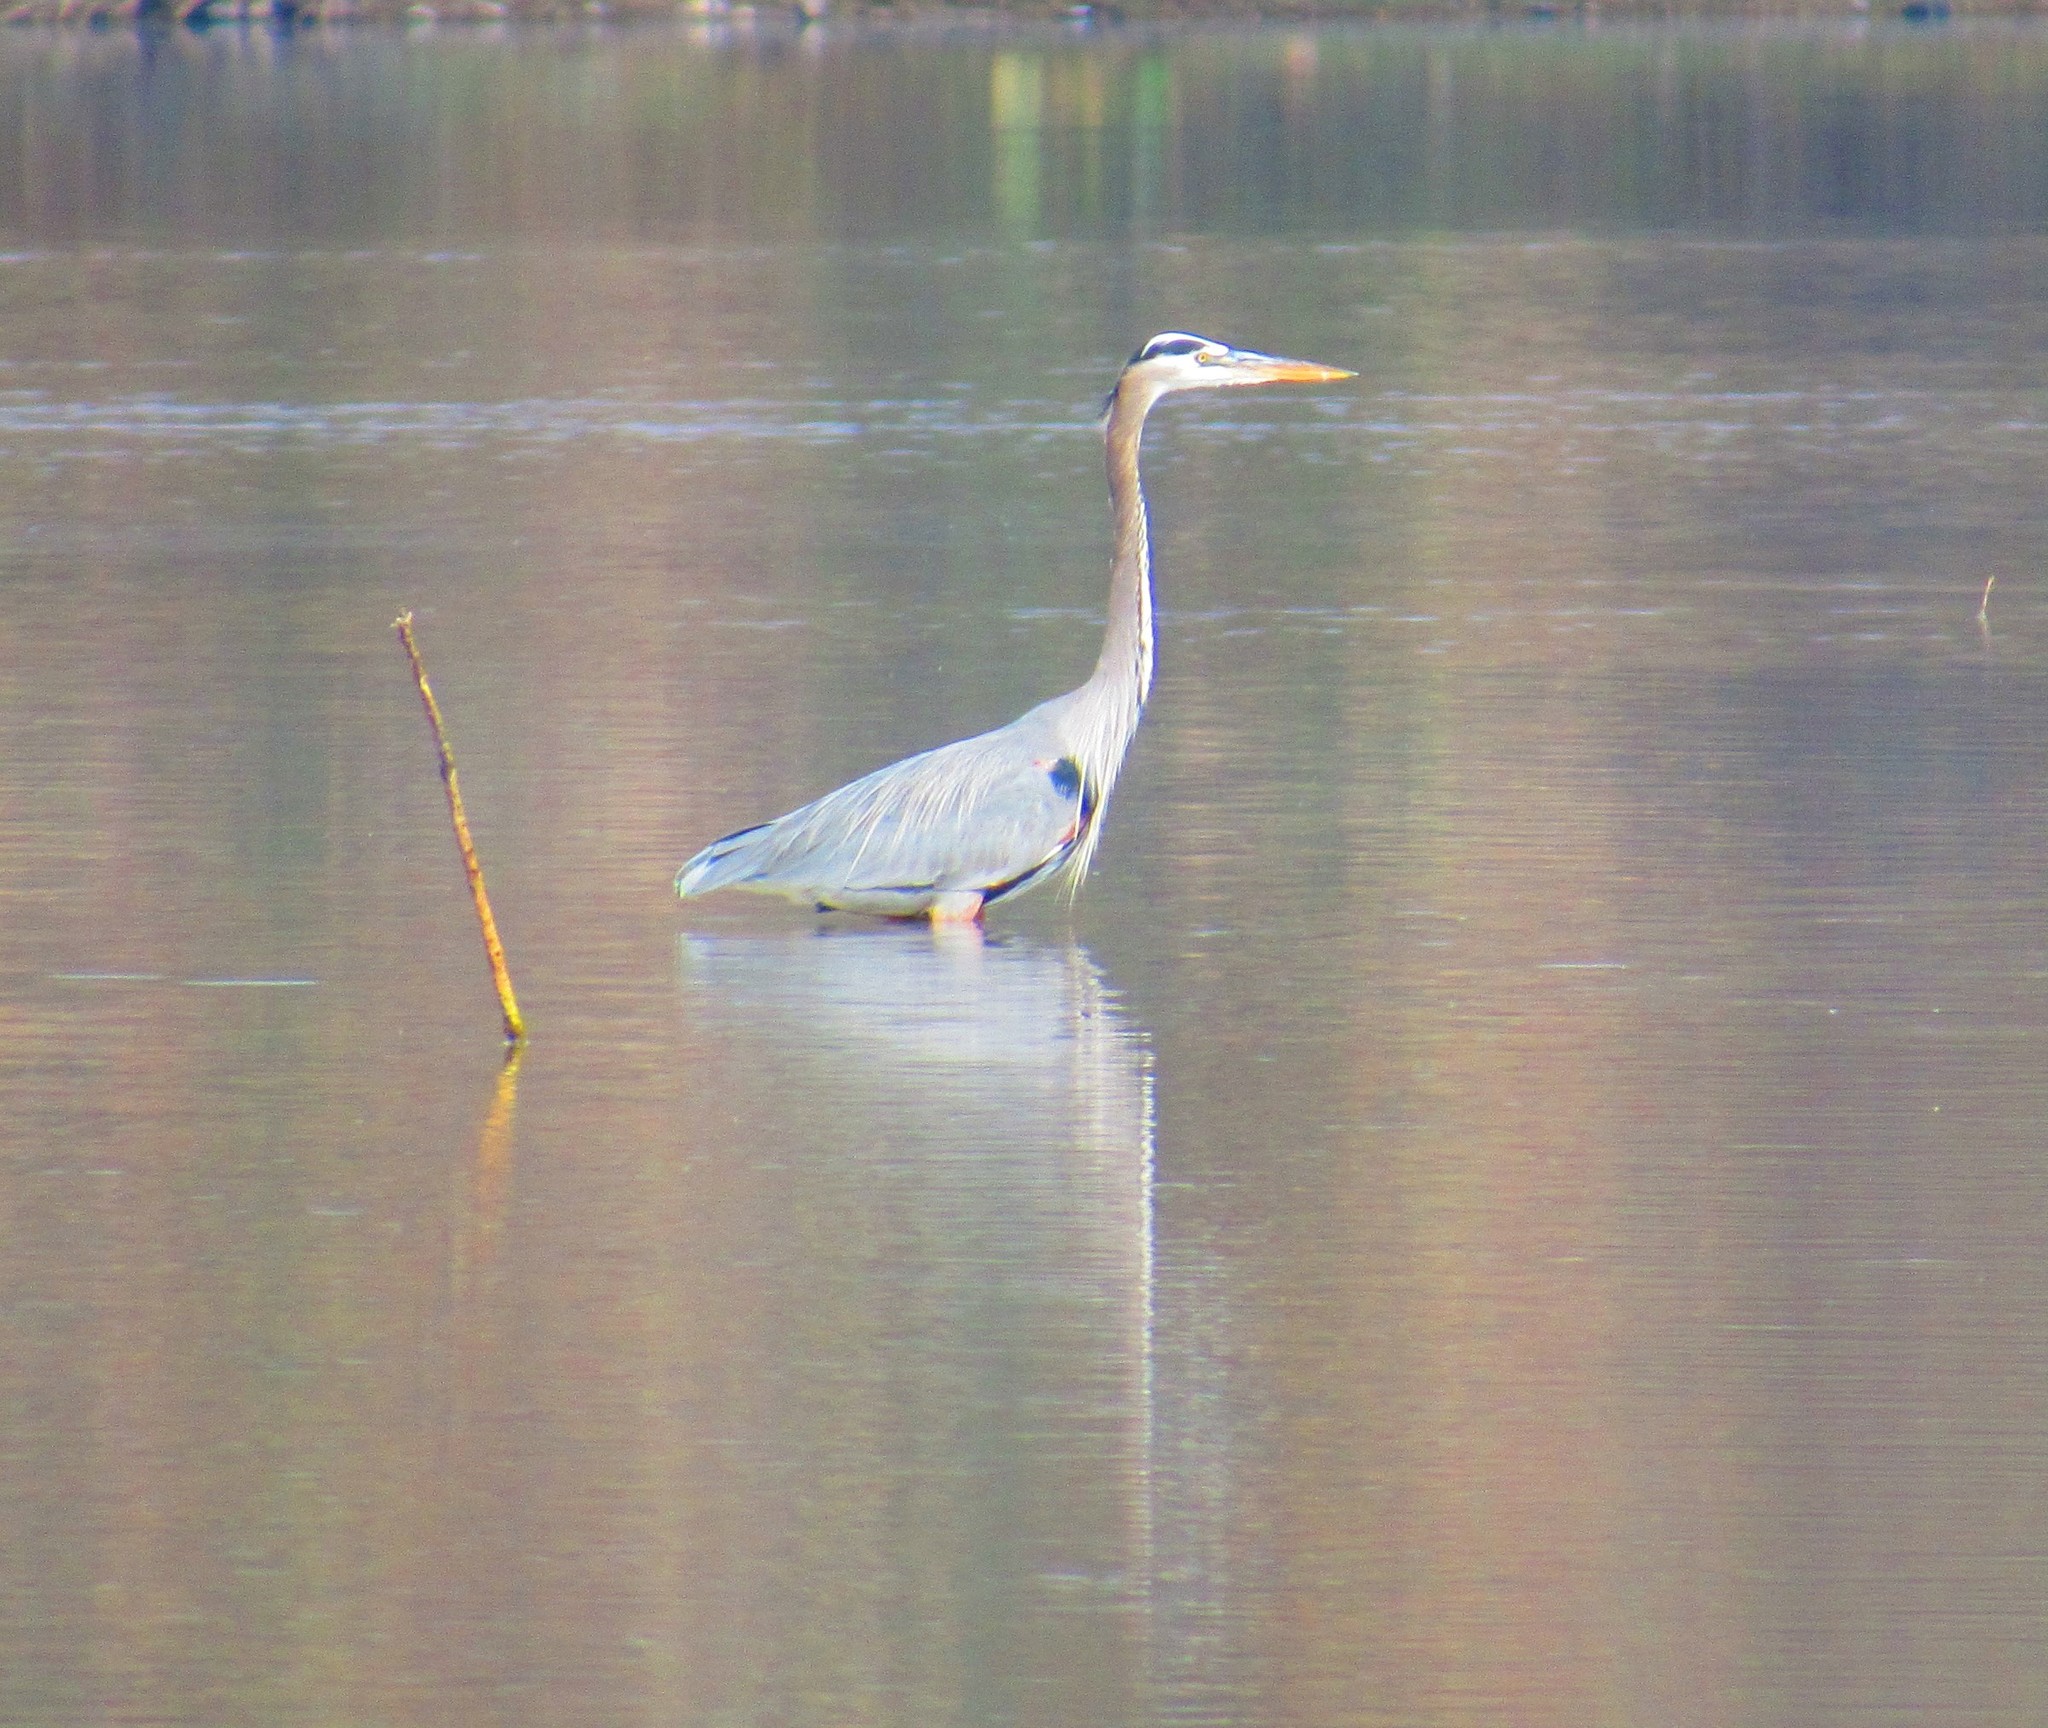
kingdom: Animalia
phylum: Chordata
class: Aves
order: Pelecaniformes
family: Ardeidae
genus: Ardea
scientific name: Ardea herodias
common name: Great blue heron
